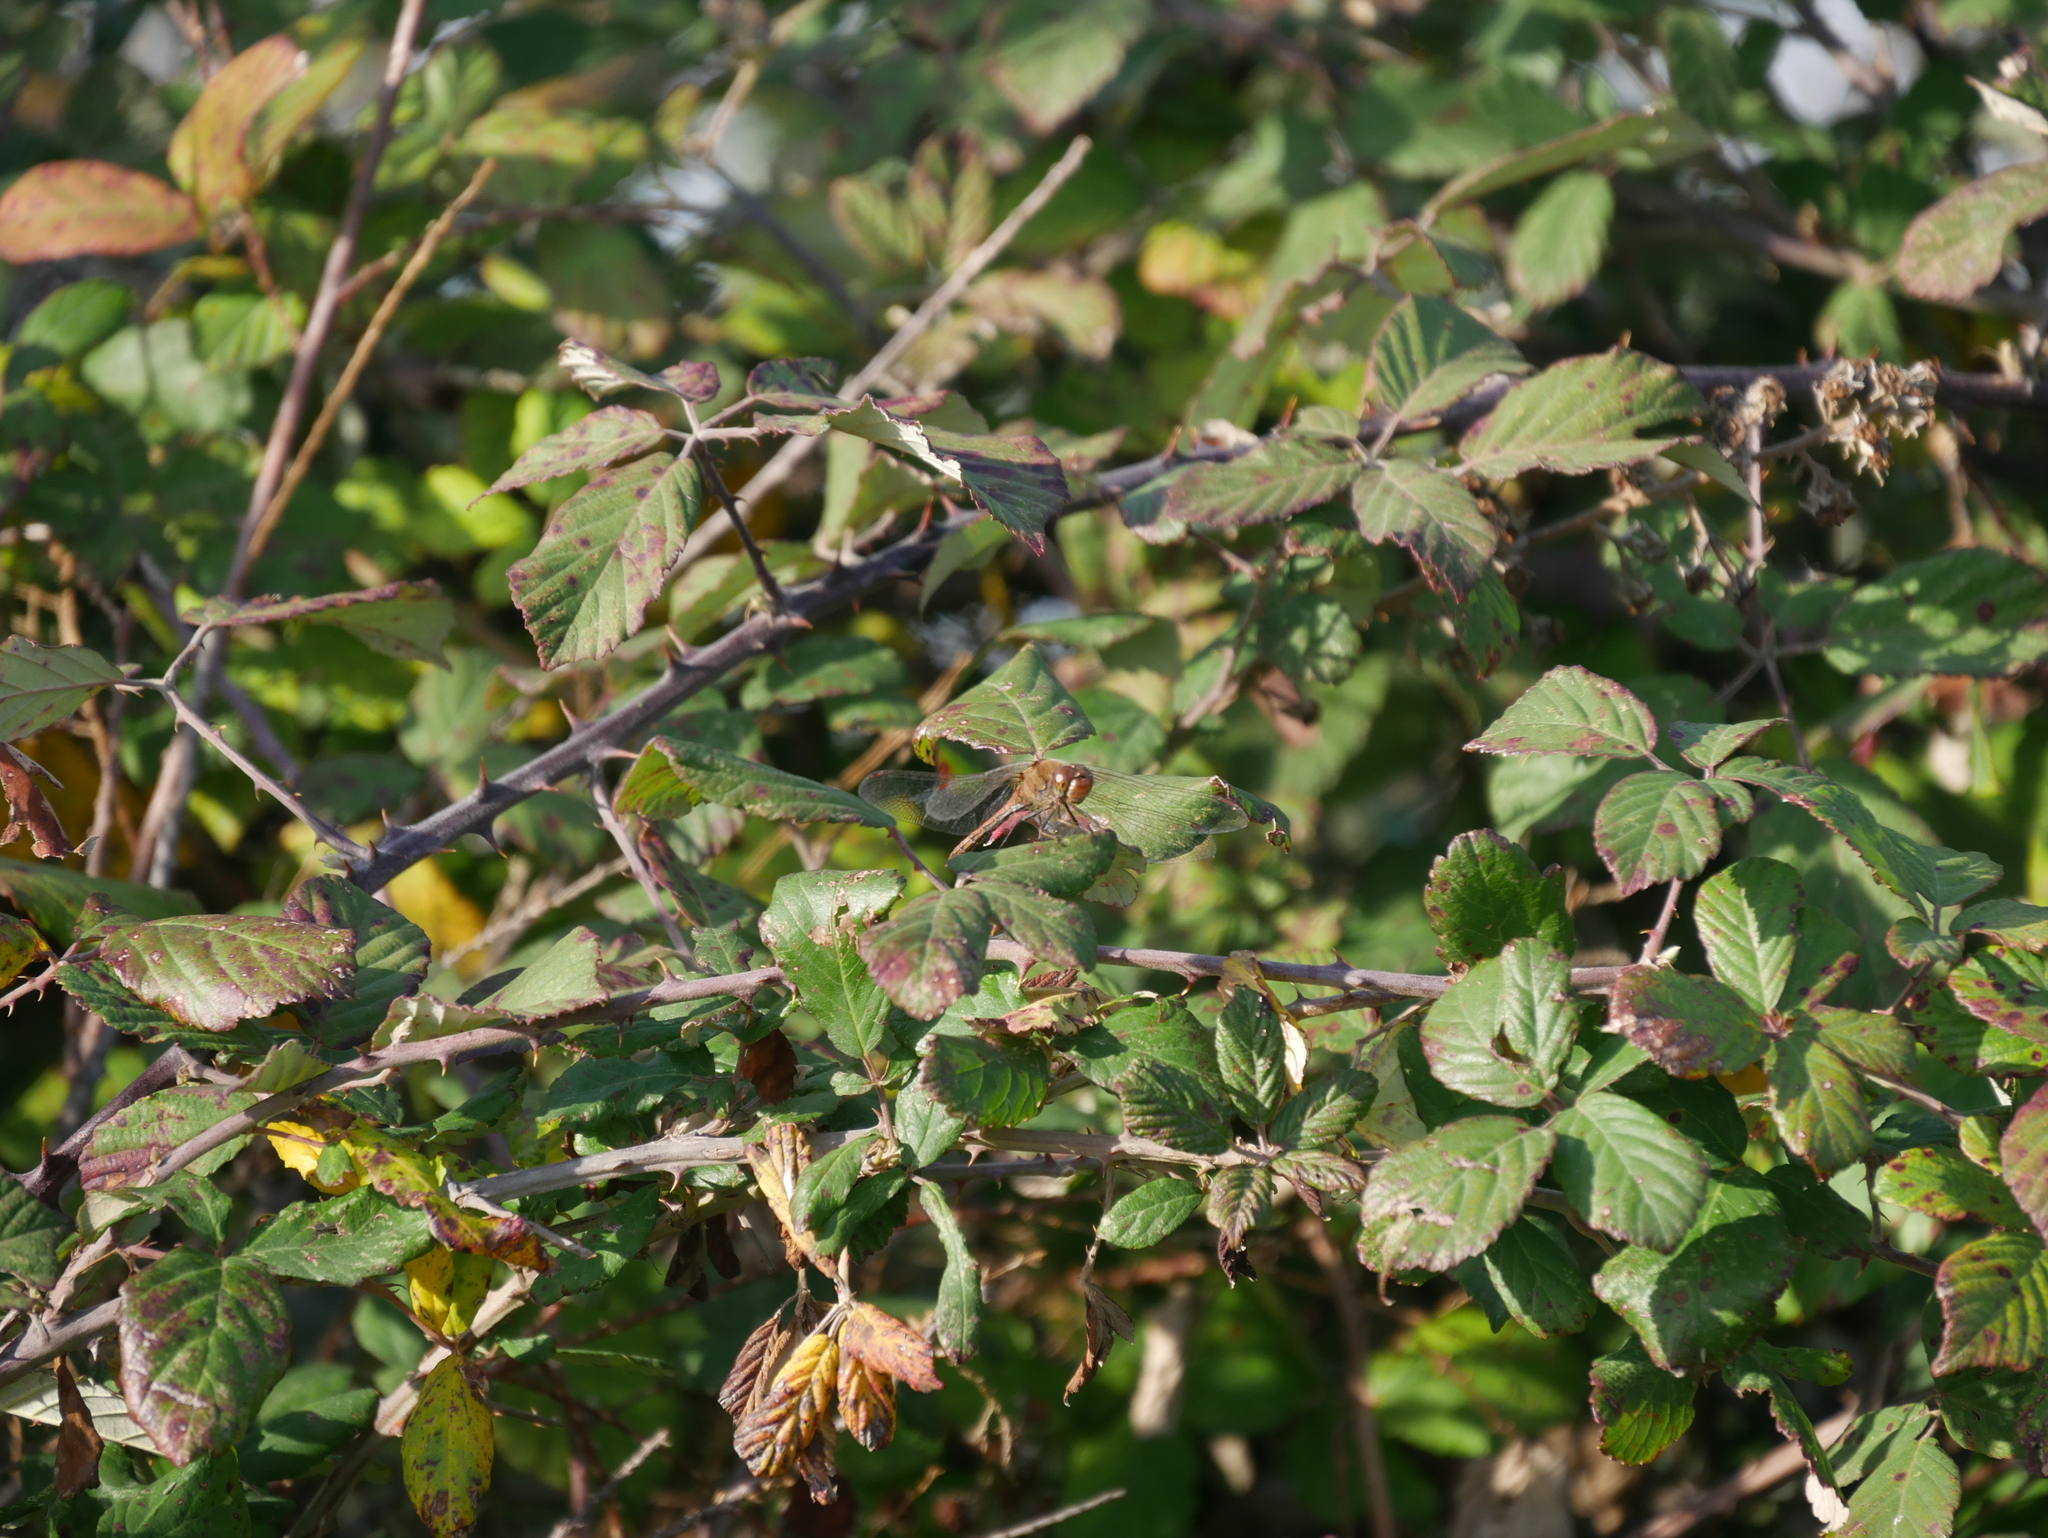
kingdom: Animalia
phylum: Arthropoda
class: Insecta
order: Odonata
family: Libellulidae
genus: Sympetrum
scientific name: Sympetrum striolatum
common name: Common darter
